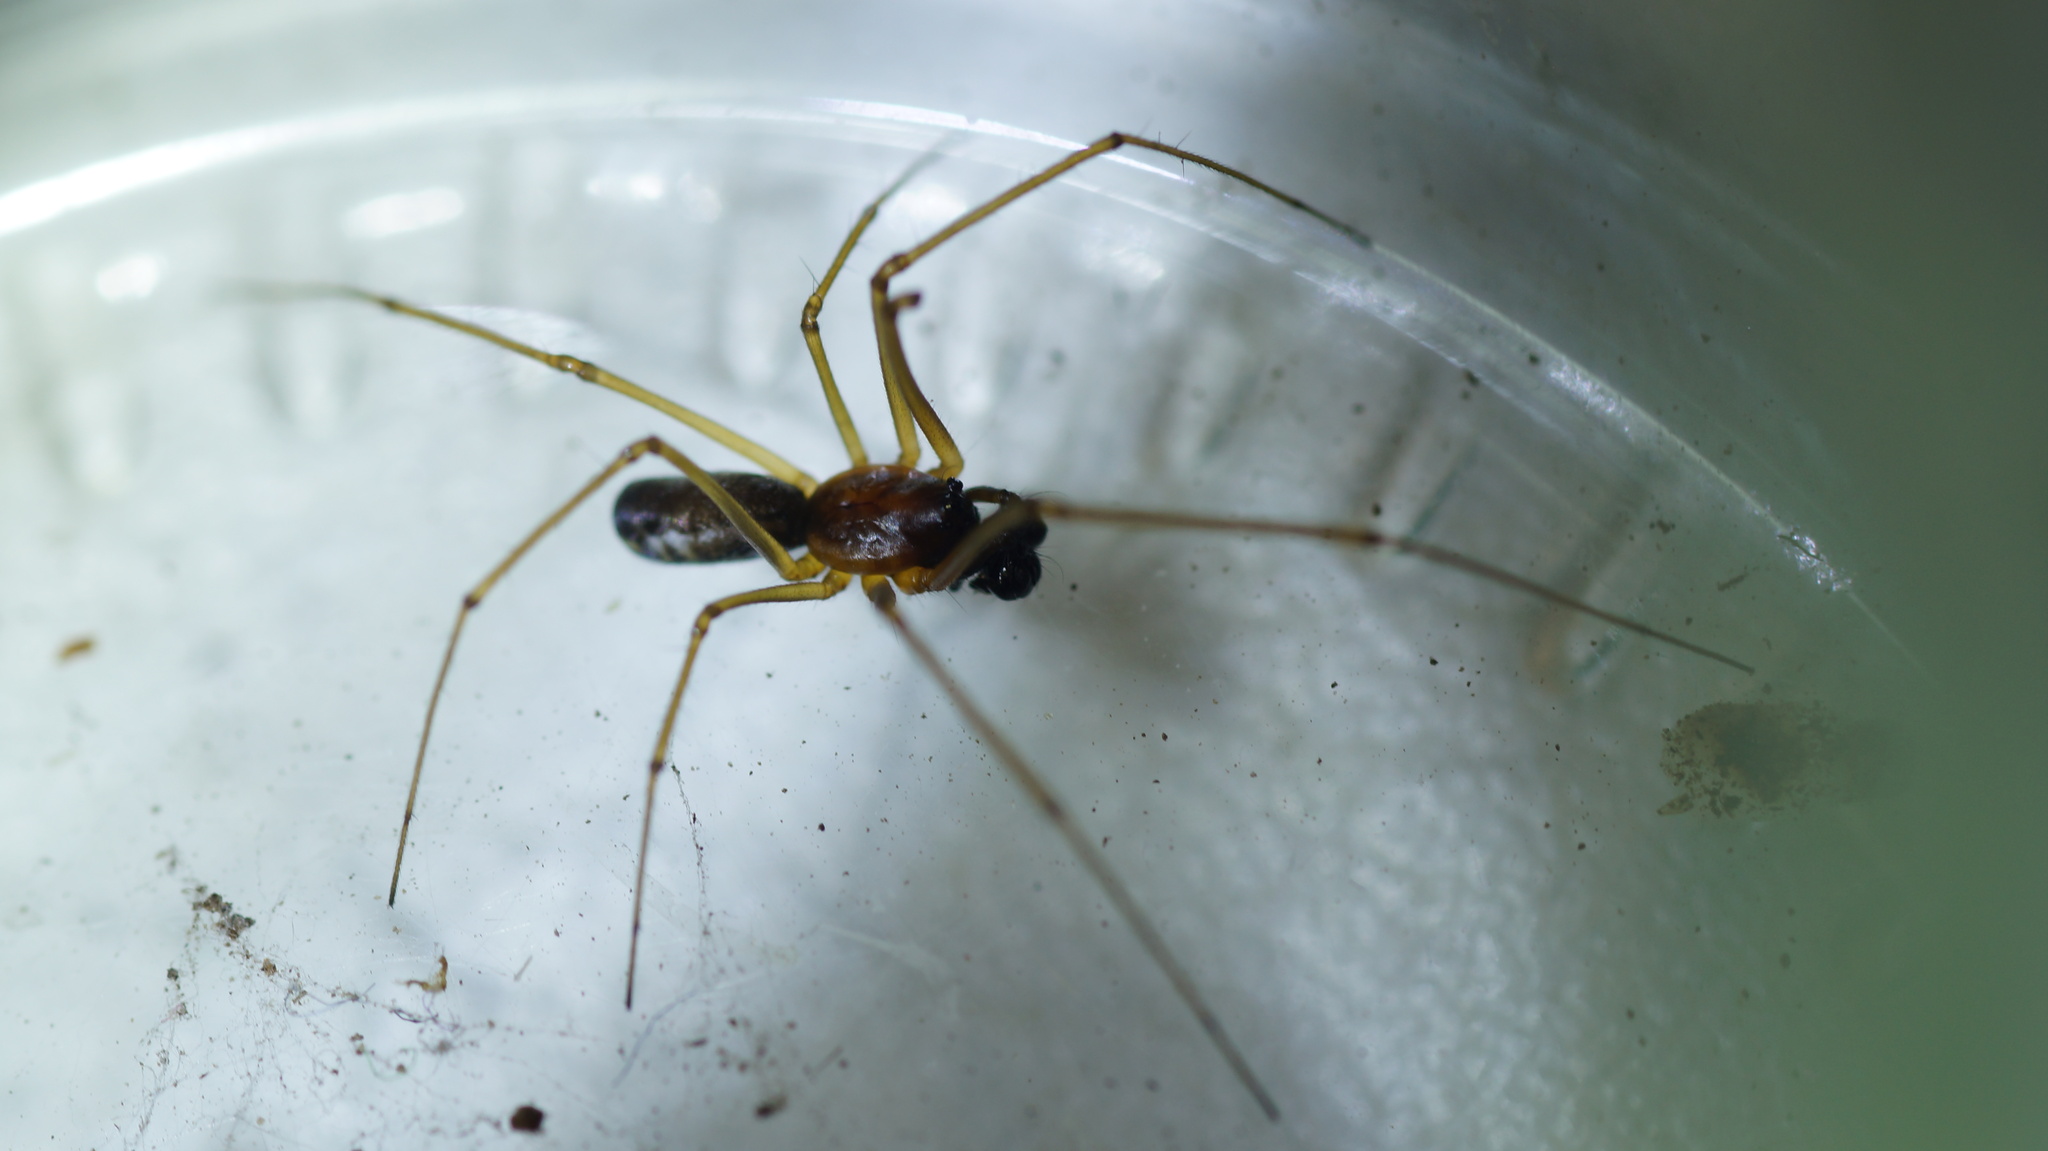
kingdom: Animalia
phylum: Arthropoda
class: Arachnida
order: Araneae
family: Linyphiidae
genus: Neriene
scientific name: Neriene radiata
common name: Filmy dome spider
